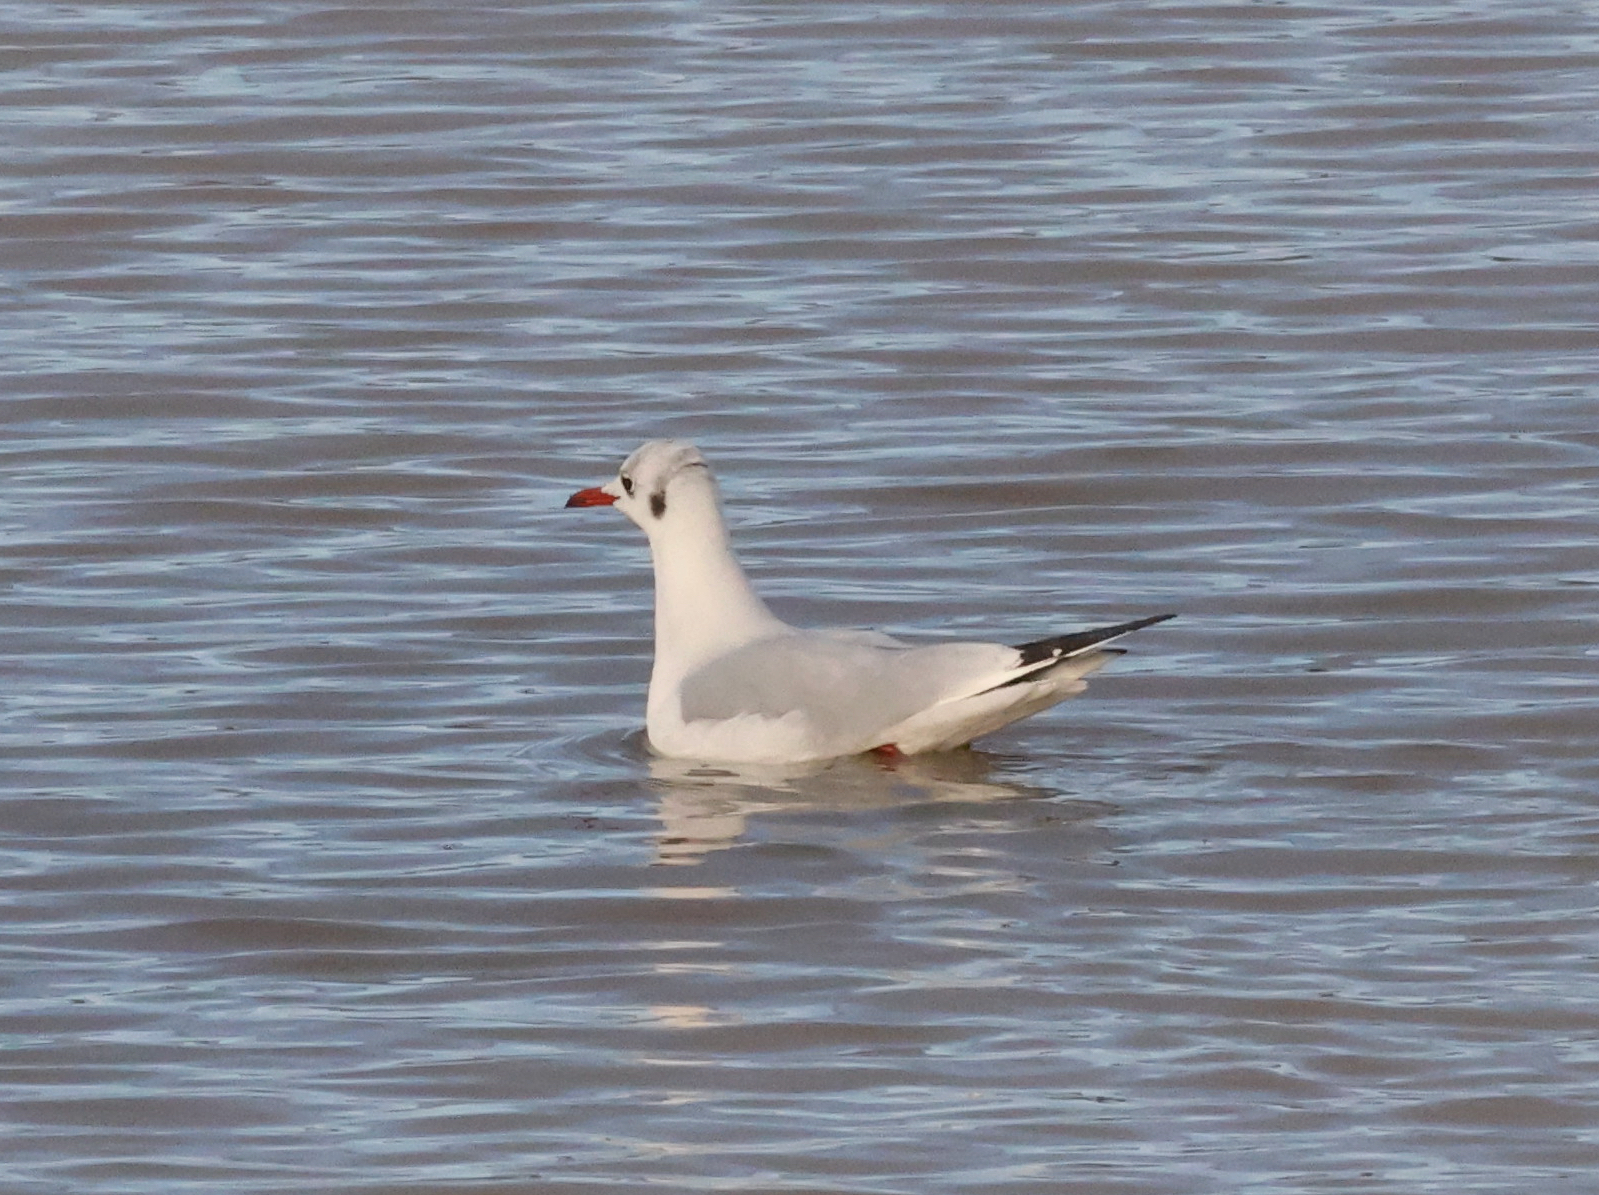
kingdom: Animalia
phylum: Chordata
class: Aves
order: Charadriiformes
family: Laridae
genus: Chroicocephalus
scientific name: Chroicocephalus ridibundus
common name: Black-headed gull
